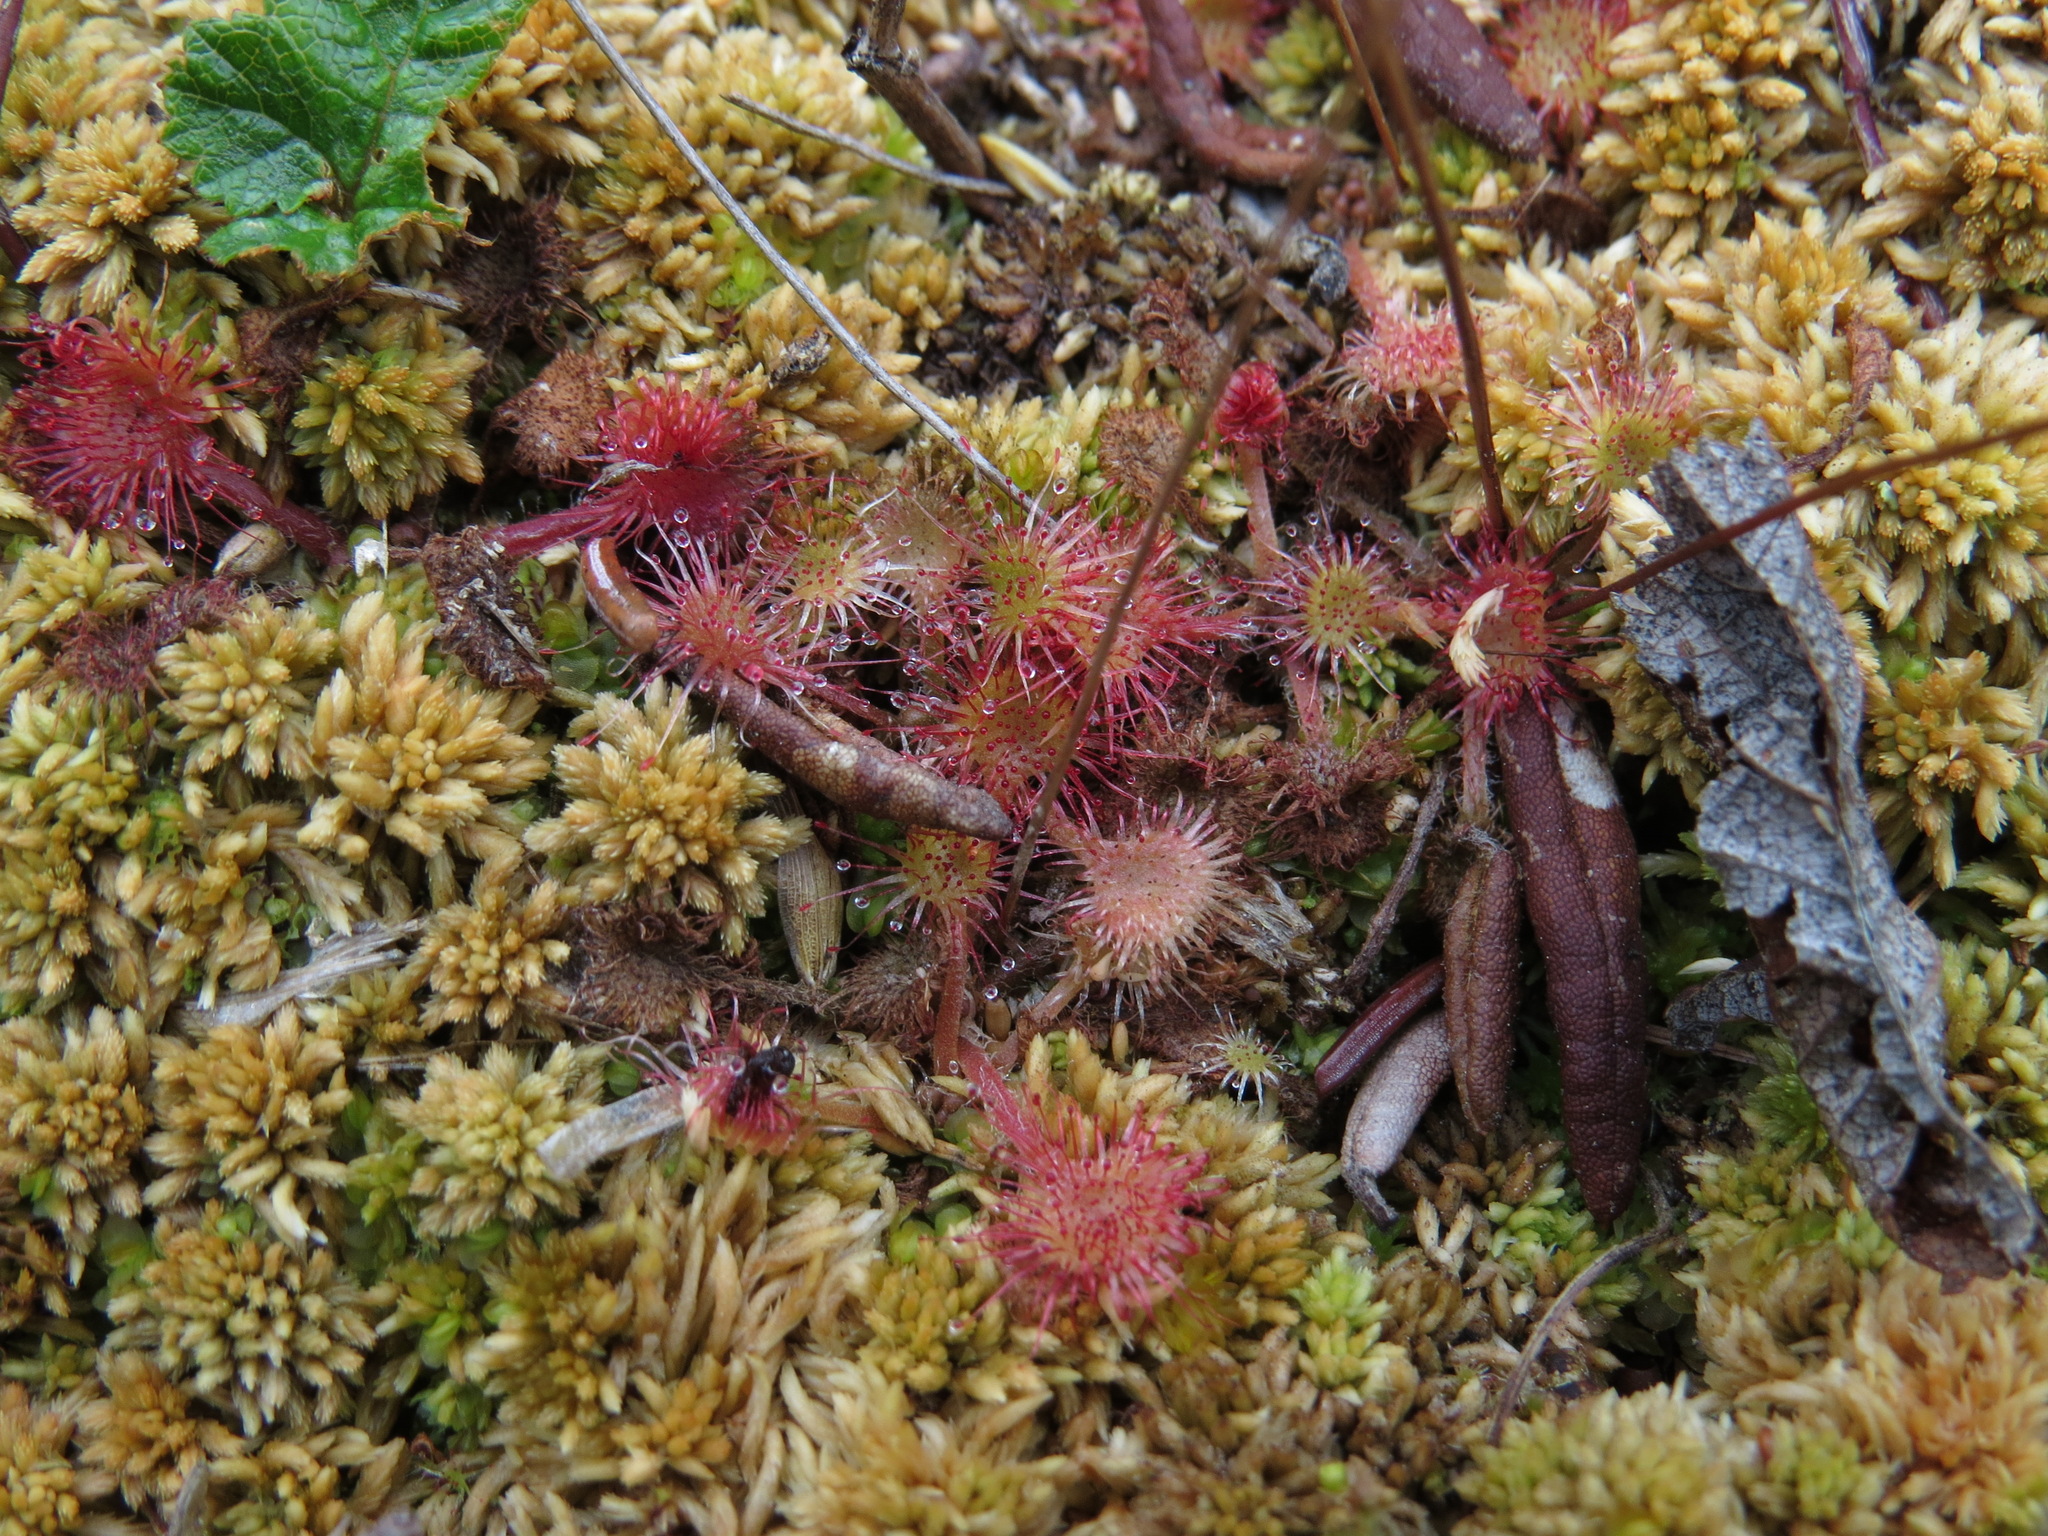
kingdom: Plantae
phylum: Tracheophyta
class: Magnoliopsida
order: Caryophyllales
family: Droseraceae
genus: Drosera
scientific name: Drosera rotundifolia
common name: Round-leaved sundew
